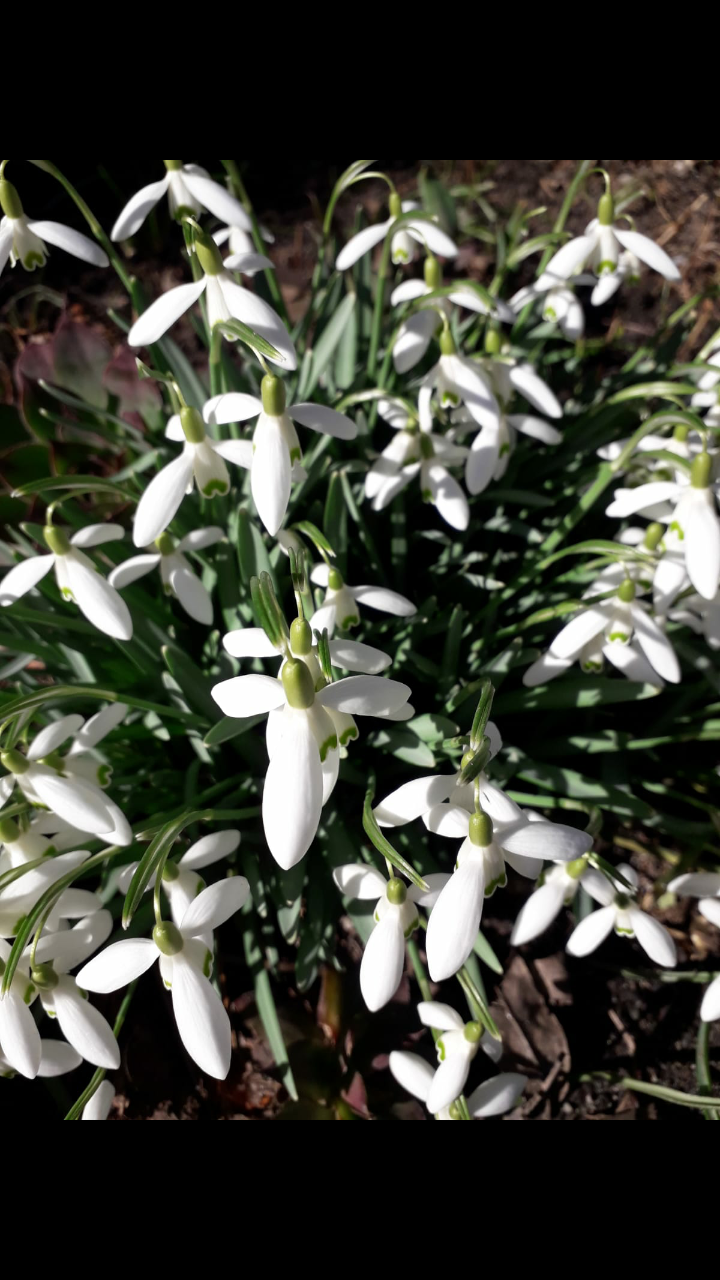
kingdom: Plantae
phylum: Tracheophyta
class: Liliopsida
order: Asparagales
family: Amaryllidaceae
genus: Galanthus
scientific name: Galanthus nivalis
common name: Snowdrop
